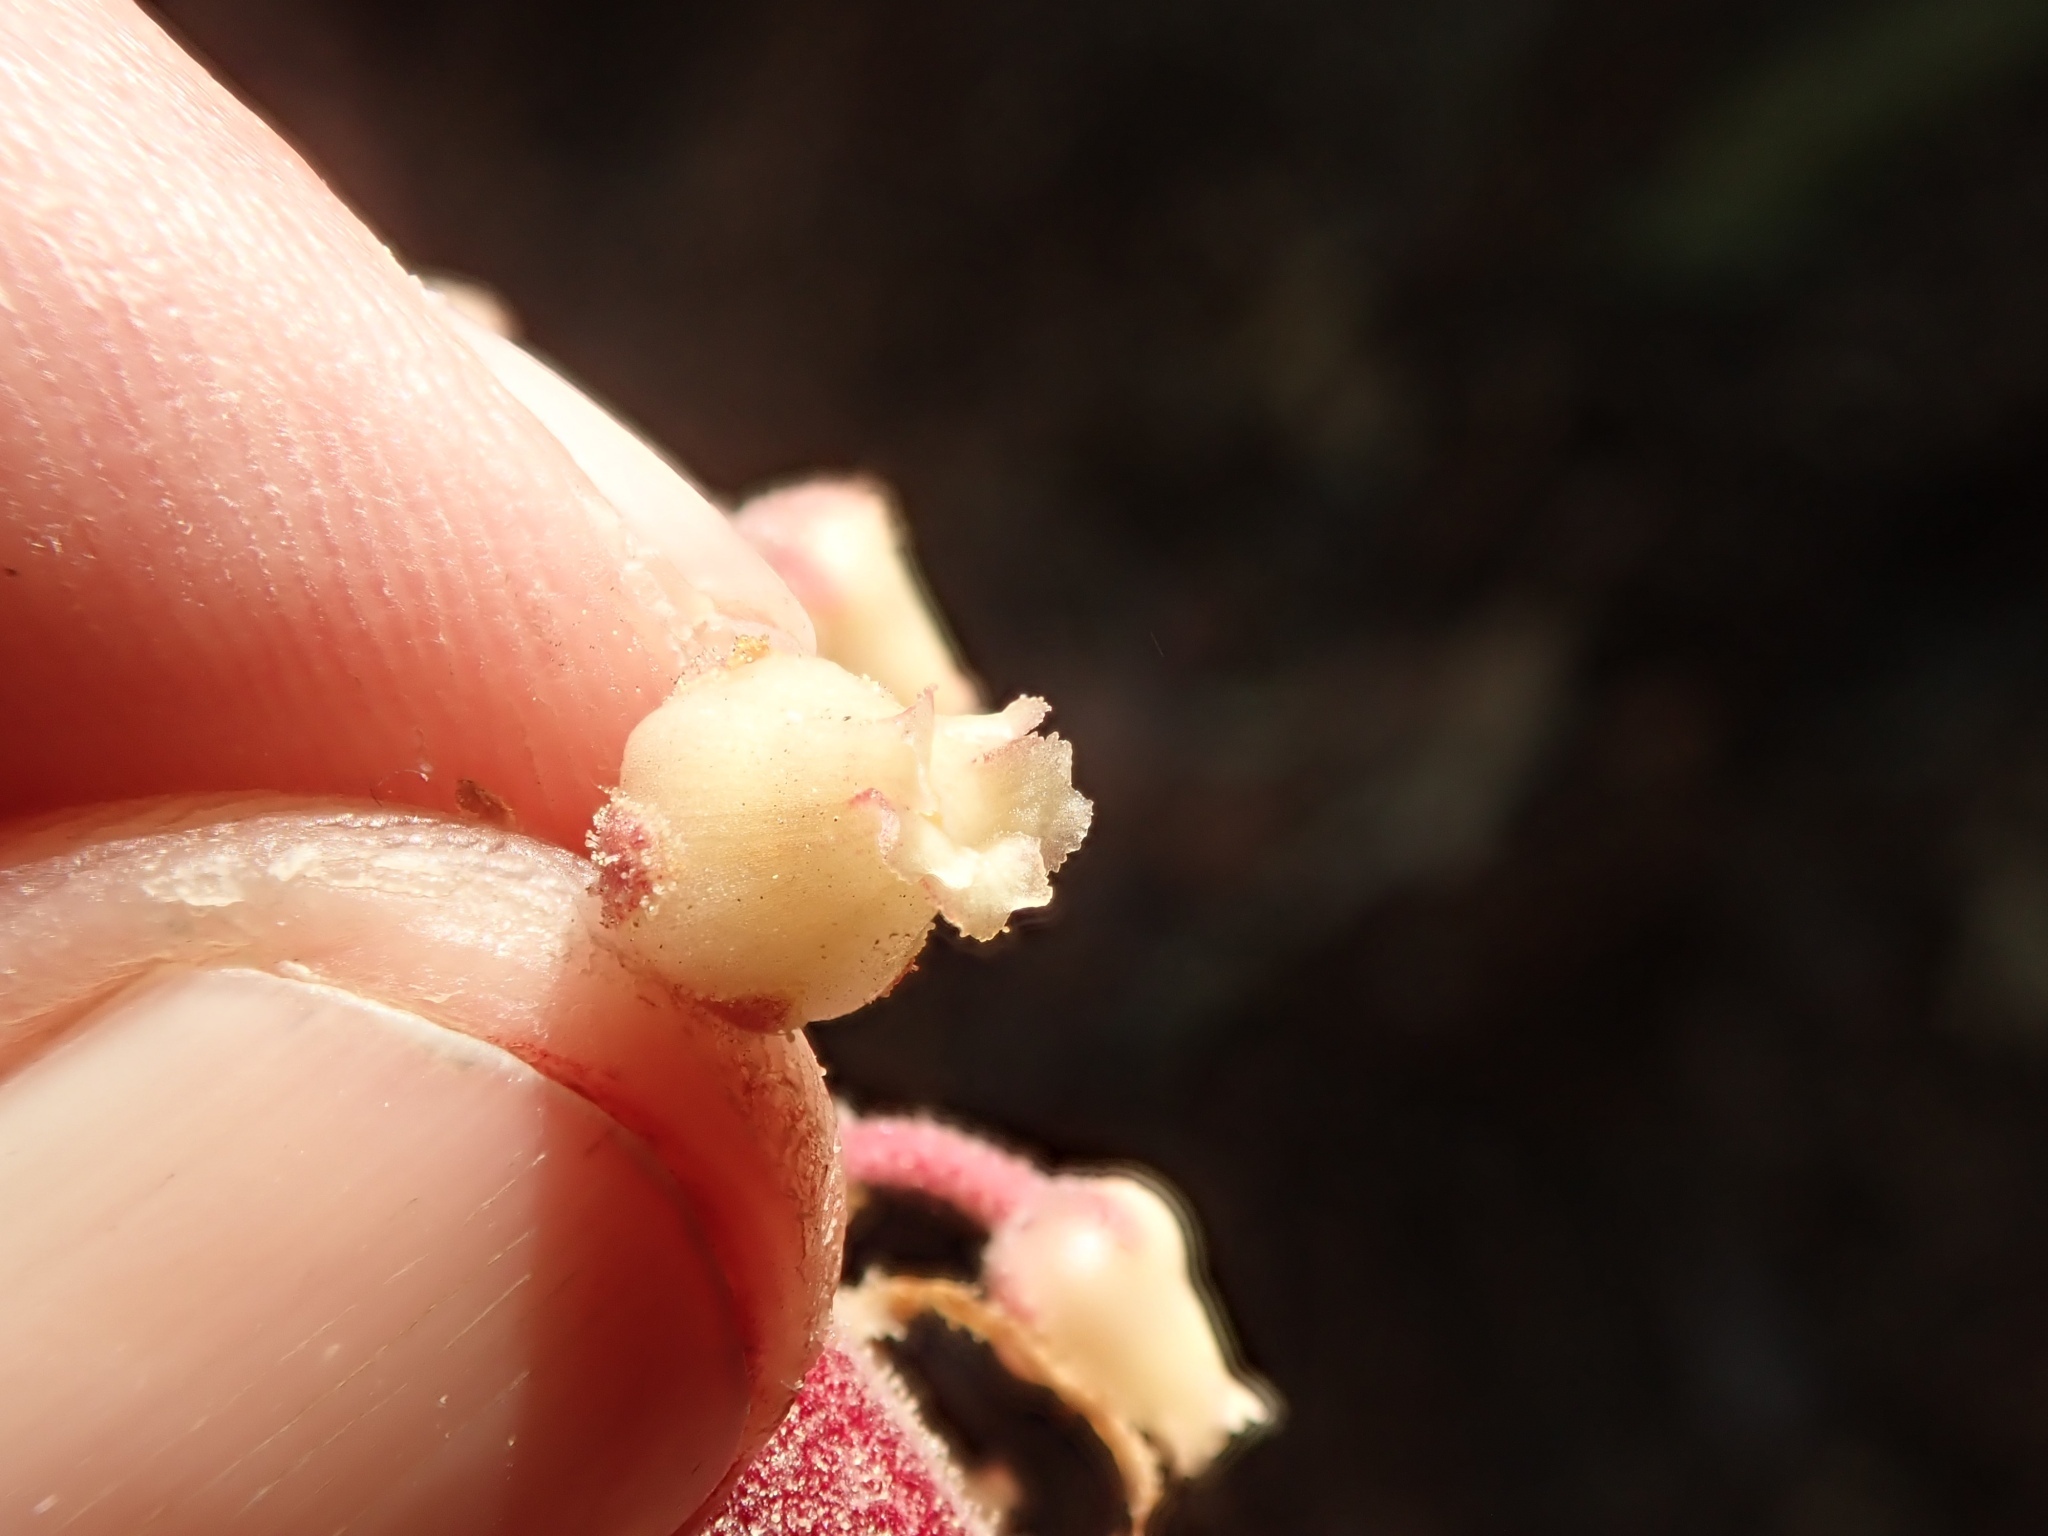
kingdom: Plantae
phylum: Tracheophyta
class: Magnoliopsida
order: Ericales
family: Ericaceae
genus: Pterospora
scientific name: Pterospora andromedea
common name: Giant bird's-nest
